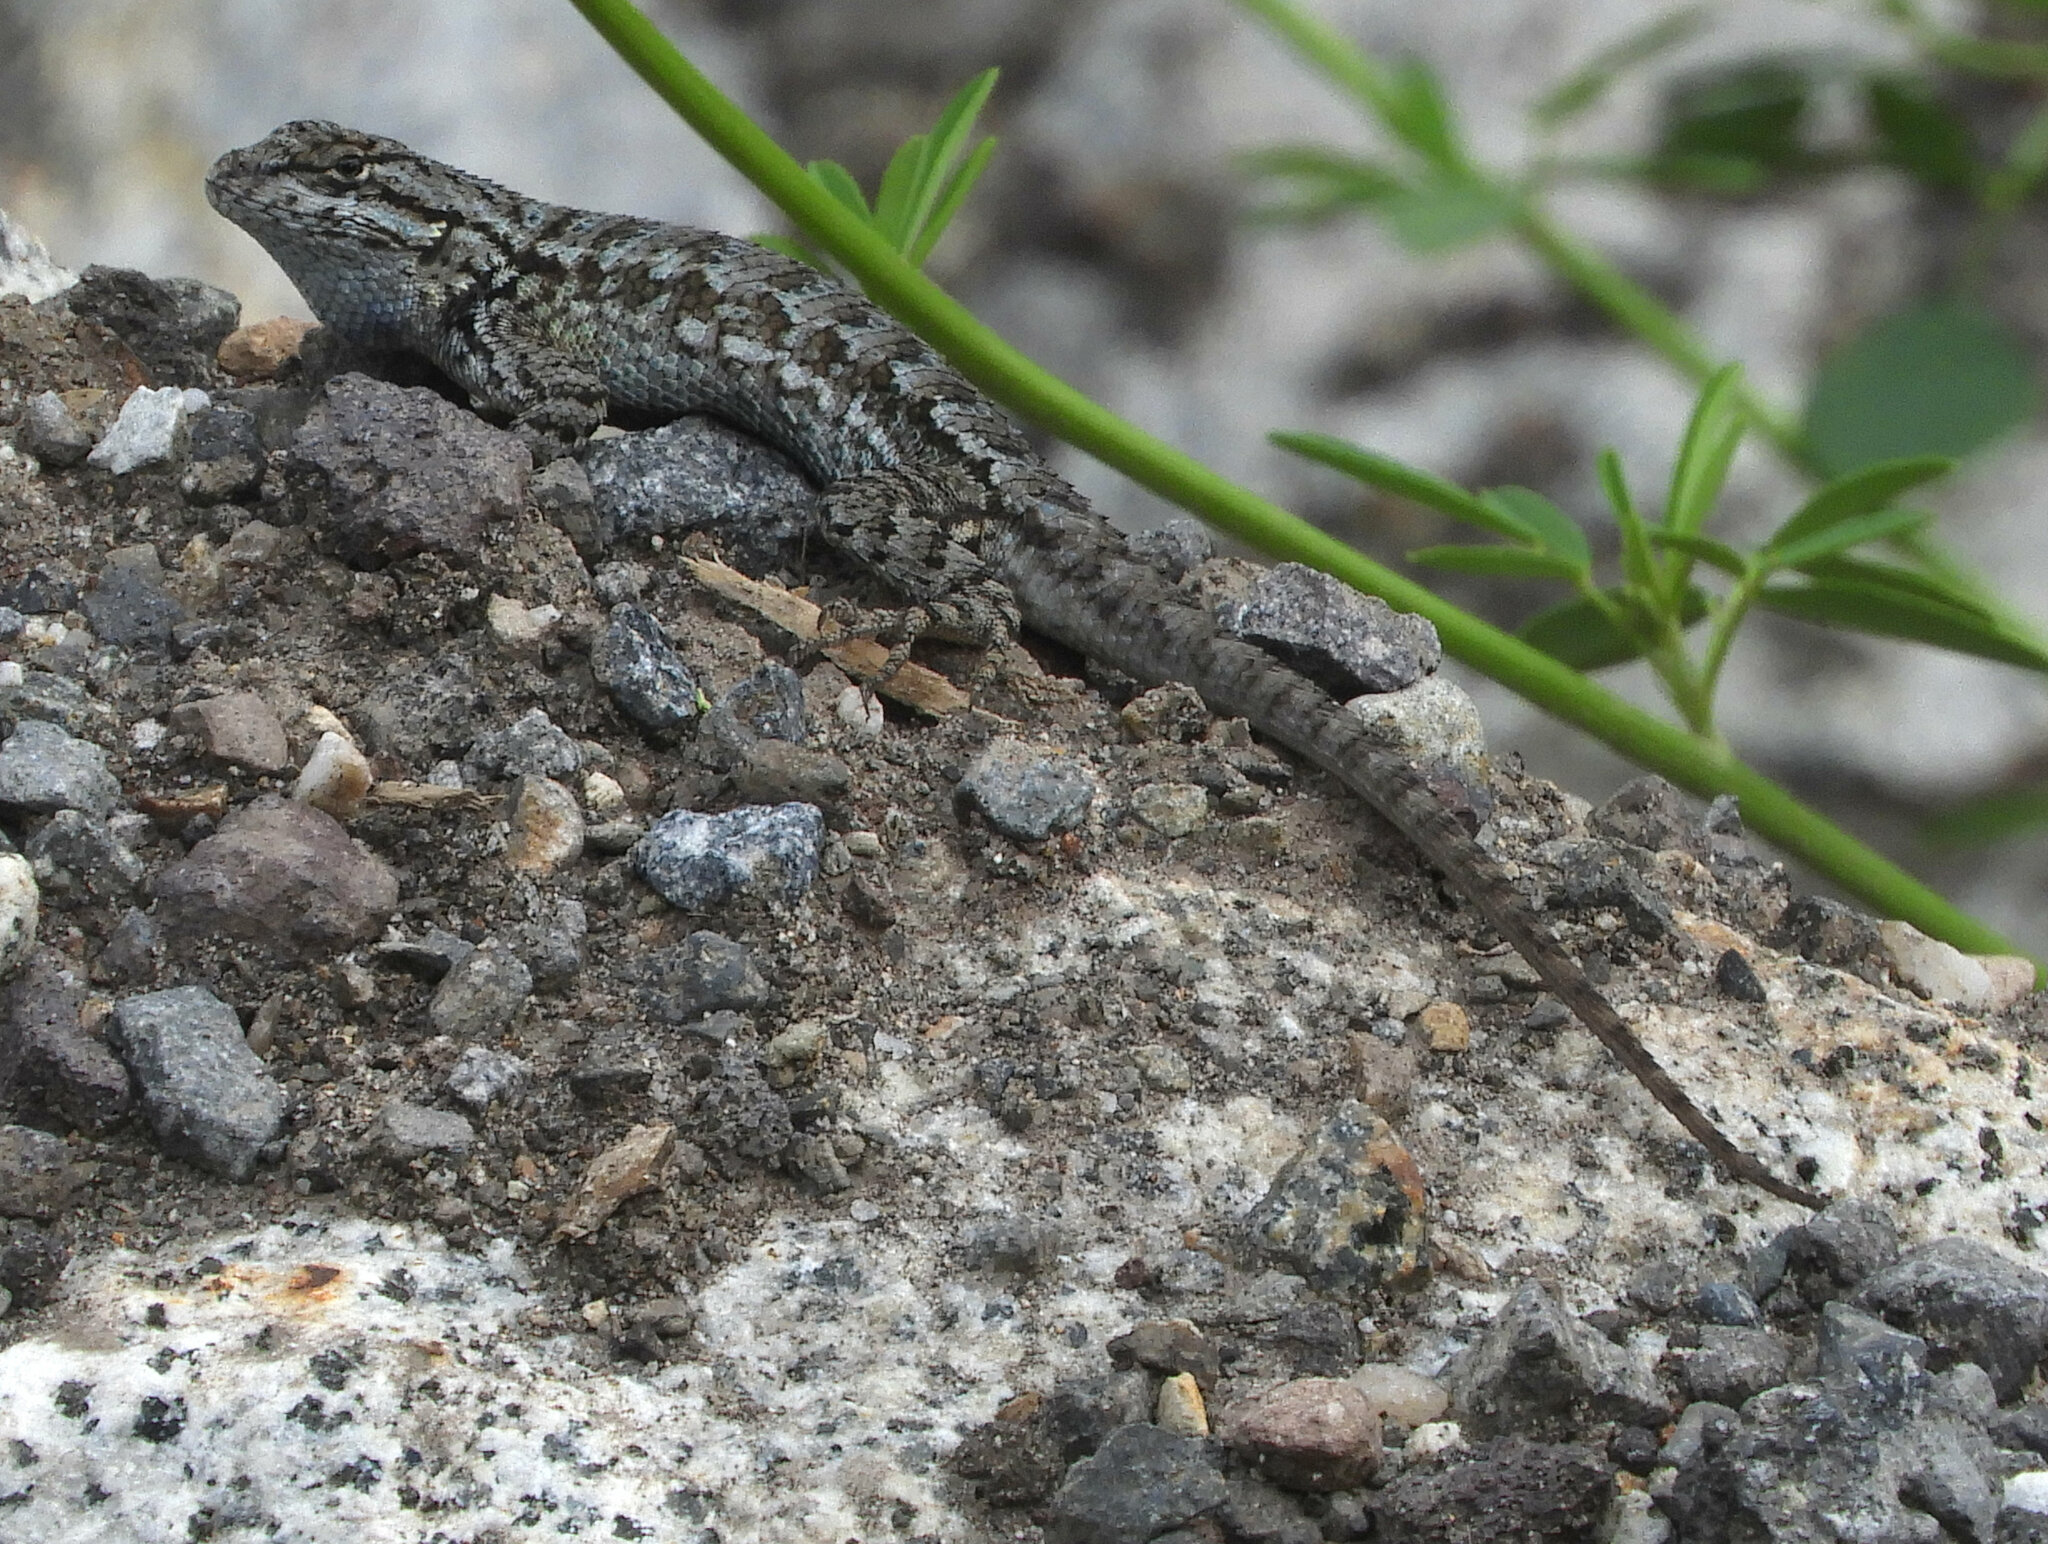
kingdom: Animalia
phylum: Chordata
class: Squamata
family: Phrynosomatidae
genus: Sceloporus
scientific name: Sceloporus occidentalis
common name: Western fence lizard
